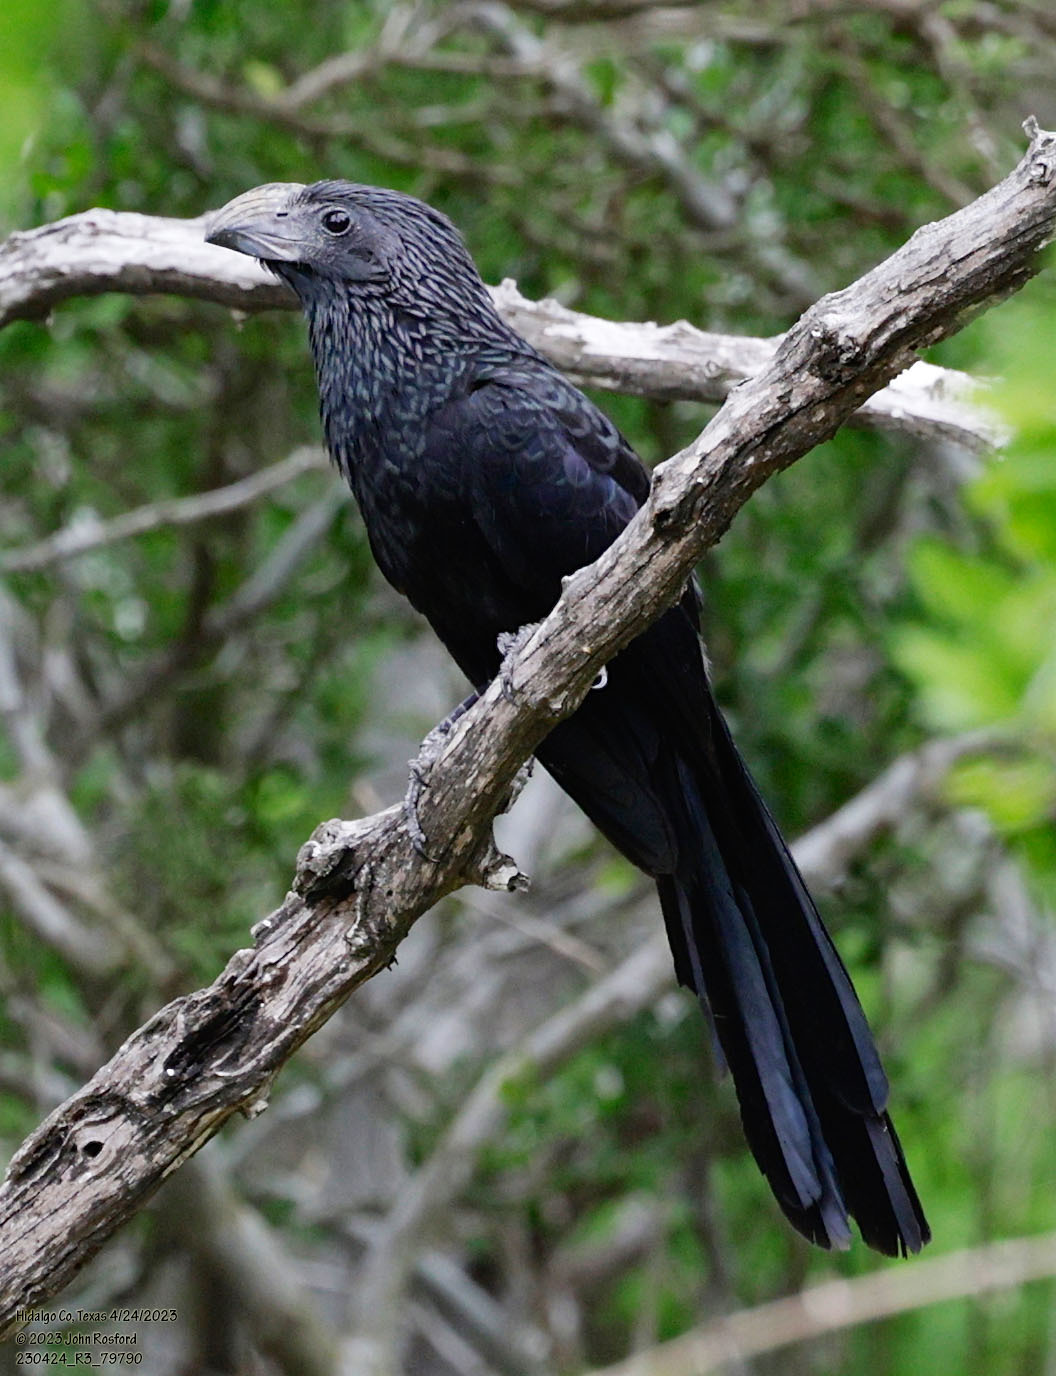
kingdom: Animalia
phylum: Chordata
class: Aves
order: Cuculiformes
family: Cuculidae
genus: Crotophaga
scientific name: Crotophaga sulcirostris
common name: Groove-billed ani
